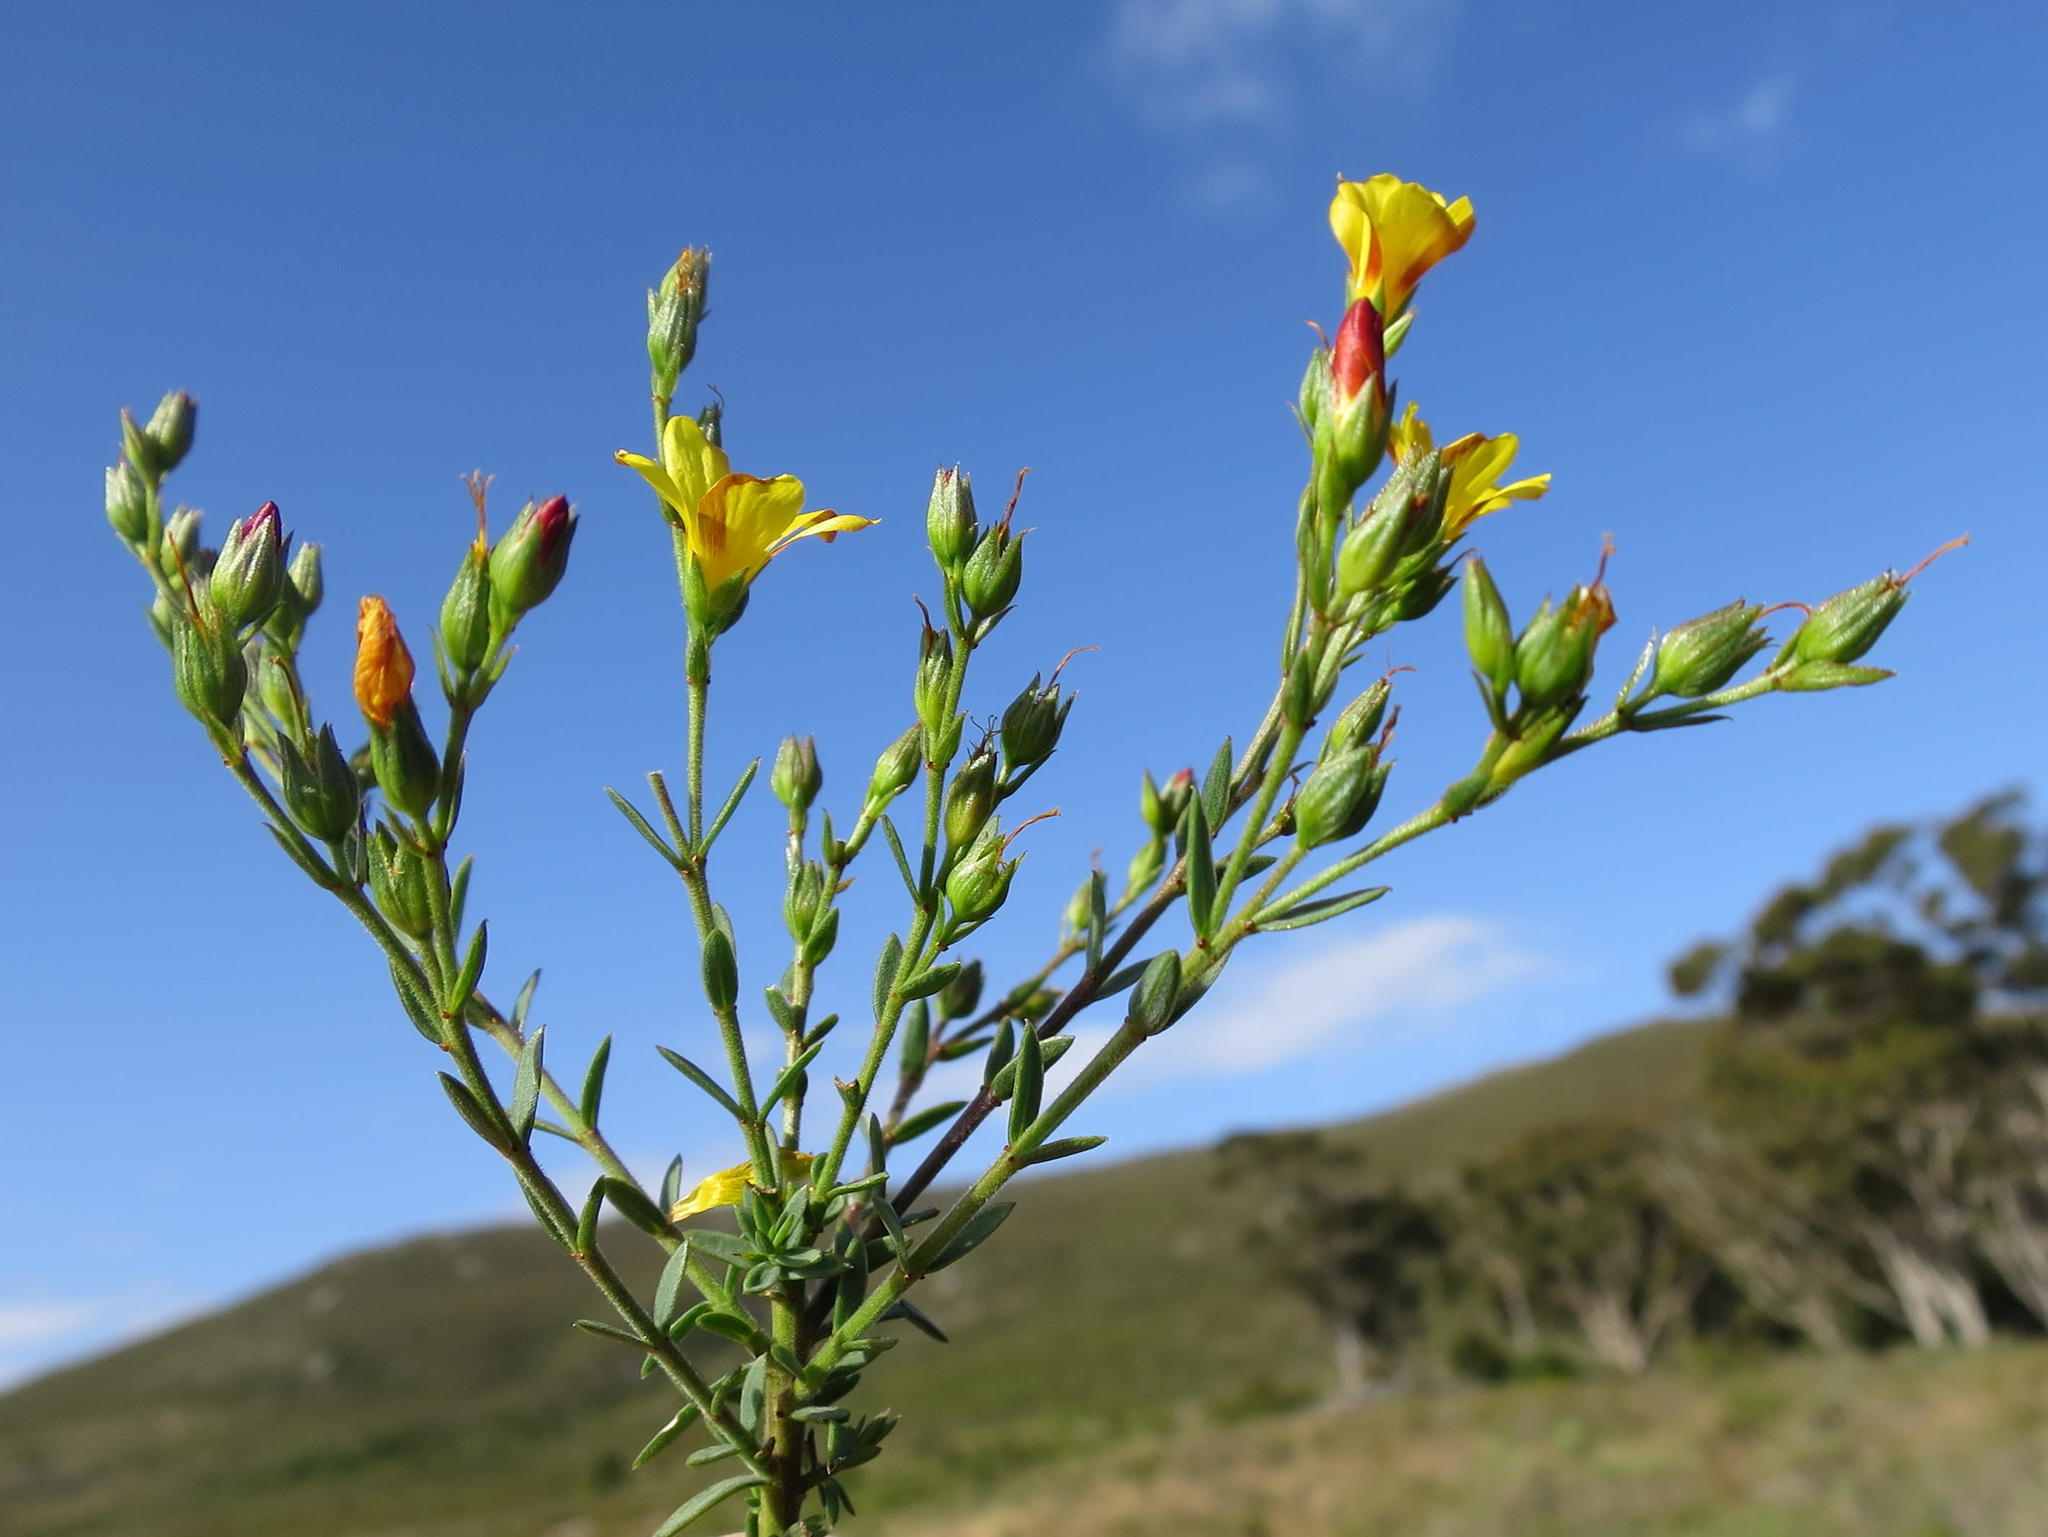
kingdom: Plantae
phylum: Tracheophyta
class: Magnoliopsida
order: Malpighiales
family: Linaceae
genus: Linum
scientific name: Linum africanum
